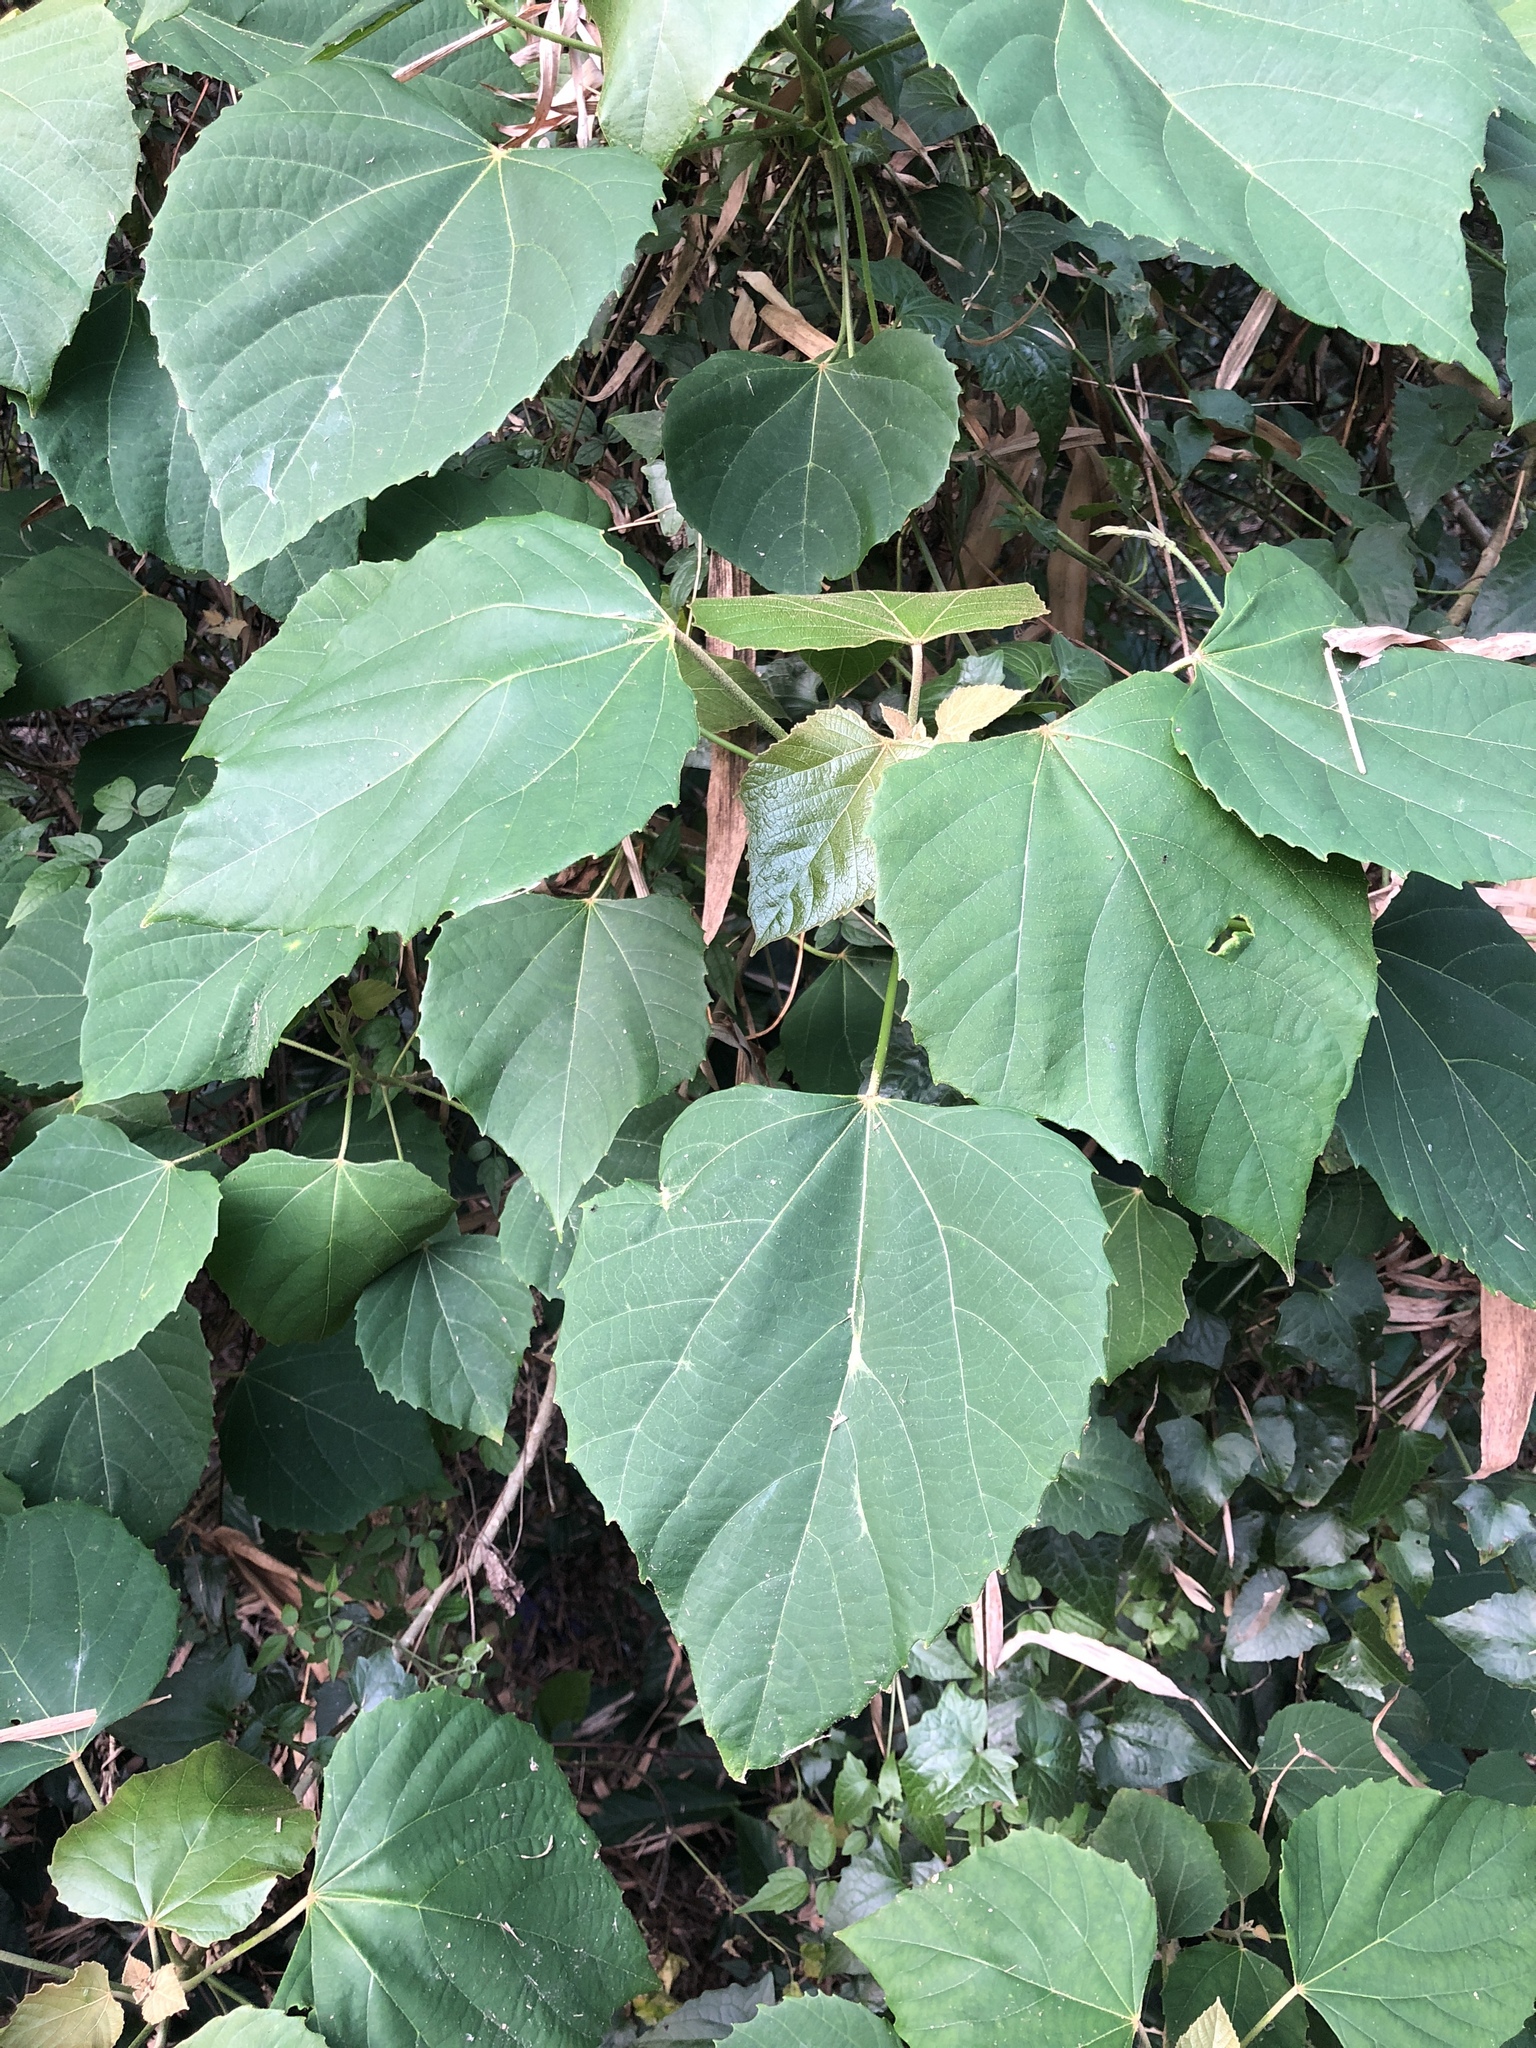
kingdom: Plantae
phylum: Tracheophyta
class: Magnoliopsida
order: Malpighiales
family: Euphorbiaceae
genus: Melanolepis
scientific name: Melanolepis multiglandulosa
